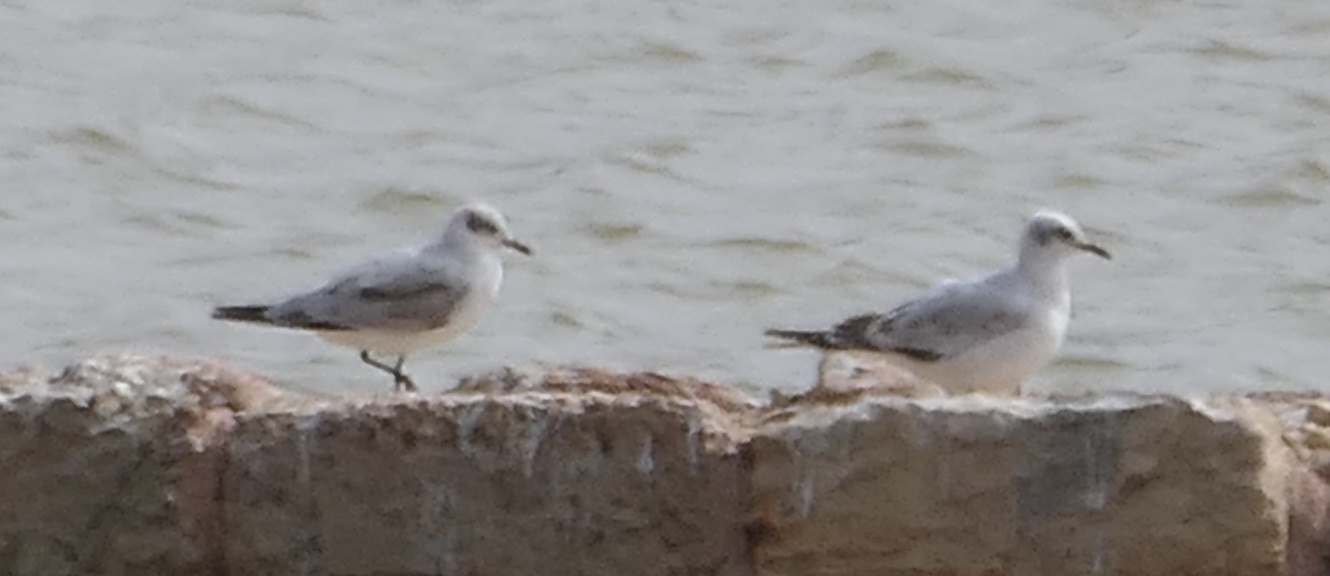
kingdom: Animalia
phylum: Chordata
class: Aves
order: Charadriiformes
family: Laridae
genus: Ichthyaetus
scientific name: Ichthyaetus melanocephalus
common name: Mediterranean gull
